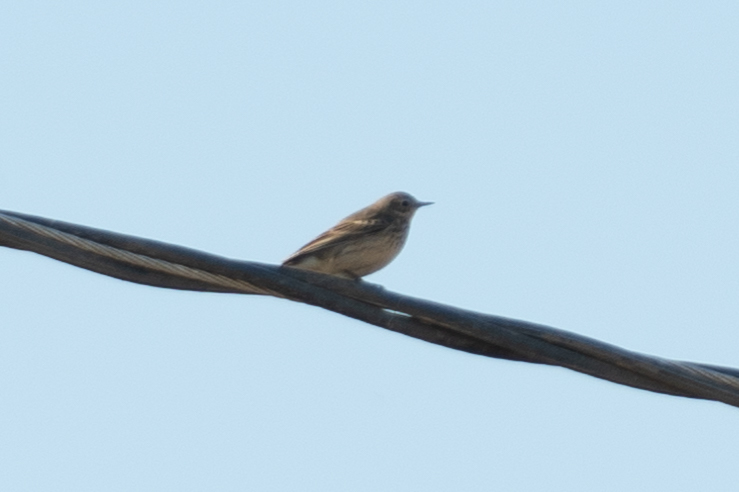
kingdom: Animalia
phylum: Chordata
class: Aves
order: Passeriformes
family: Motacillidae
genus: Anthus
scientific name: Anthus rubescens
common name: Buff-bellied pipit
